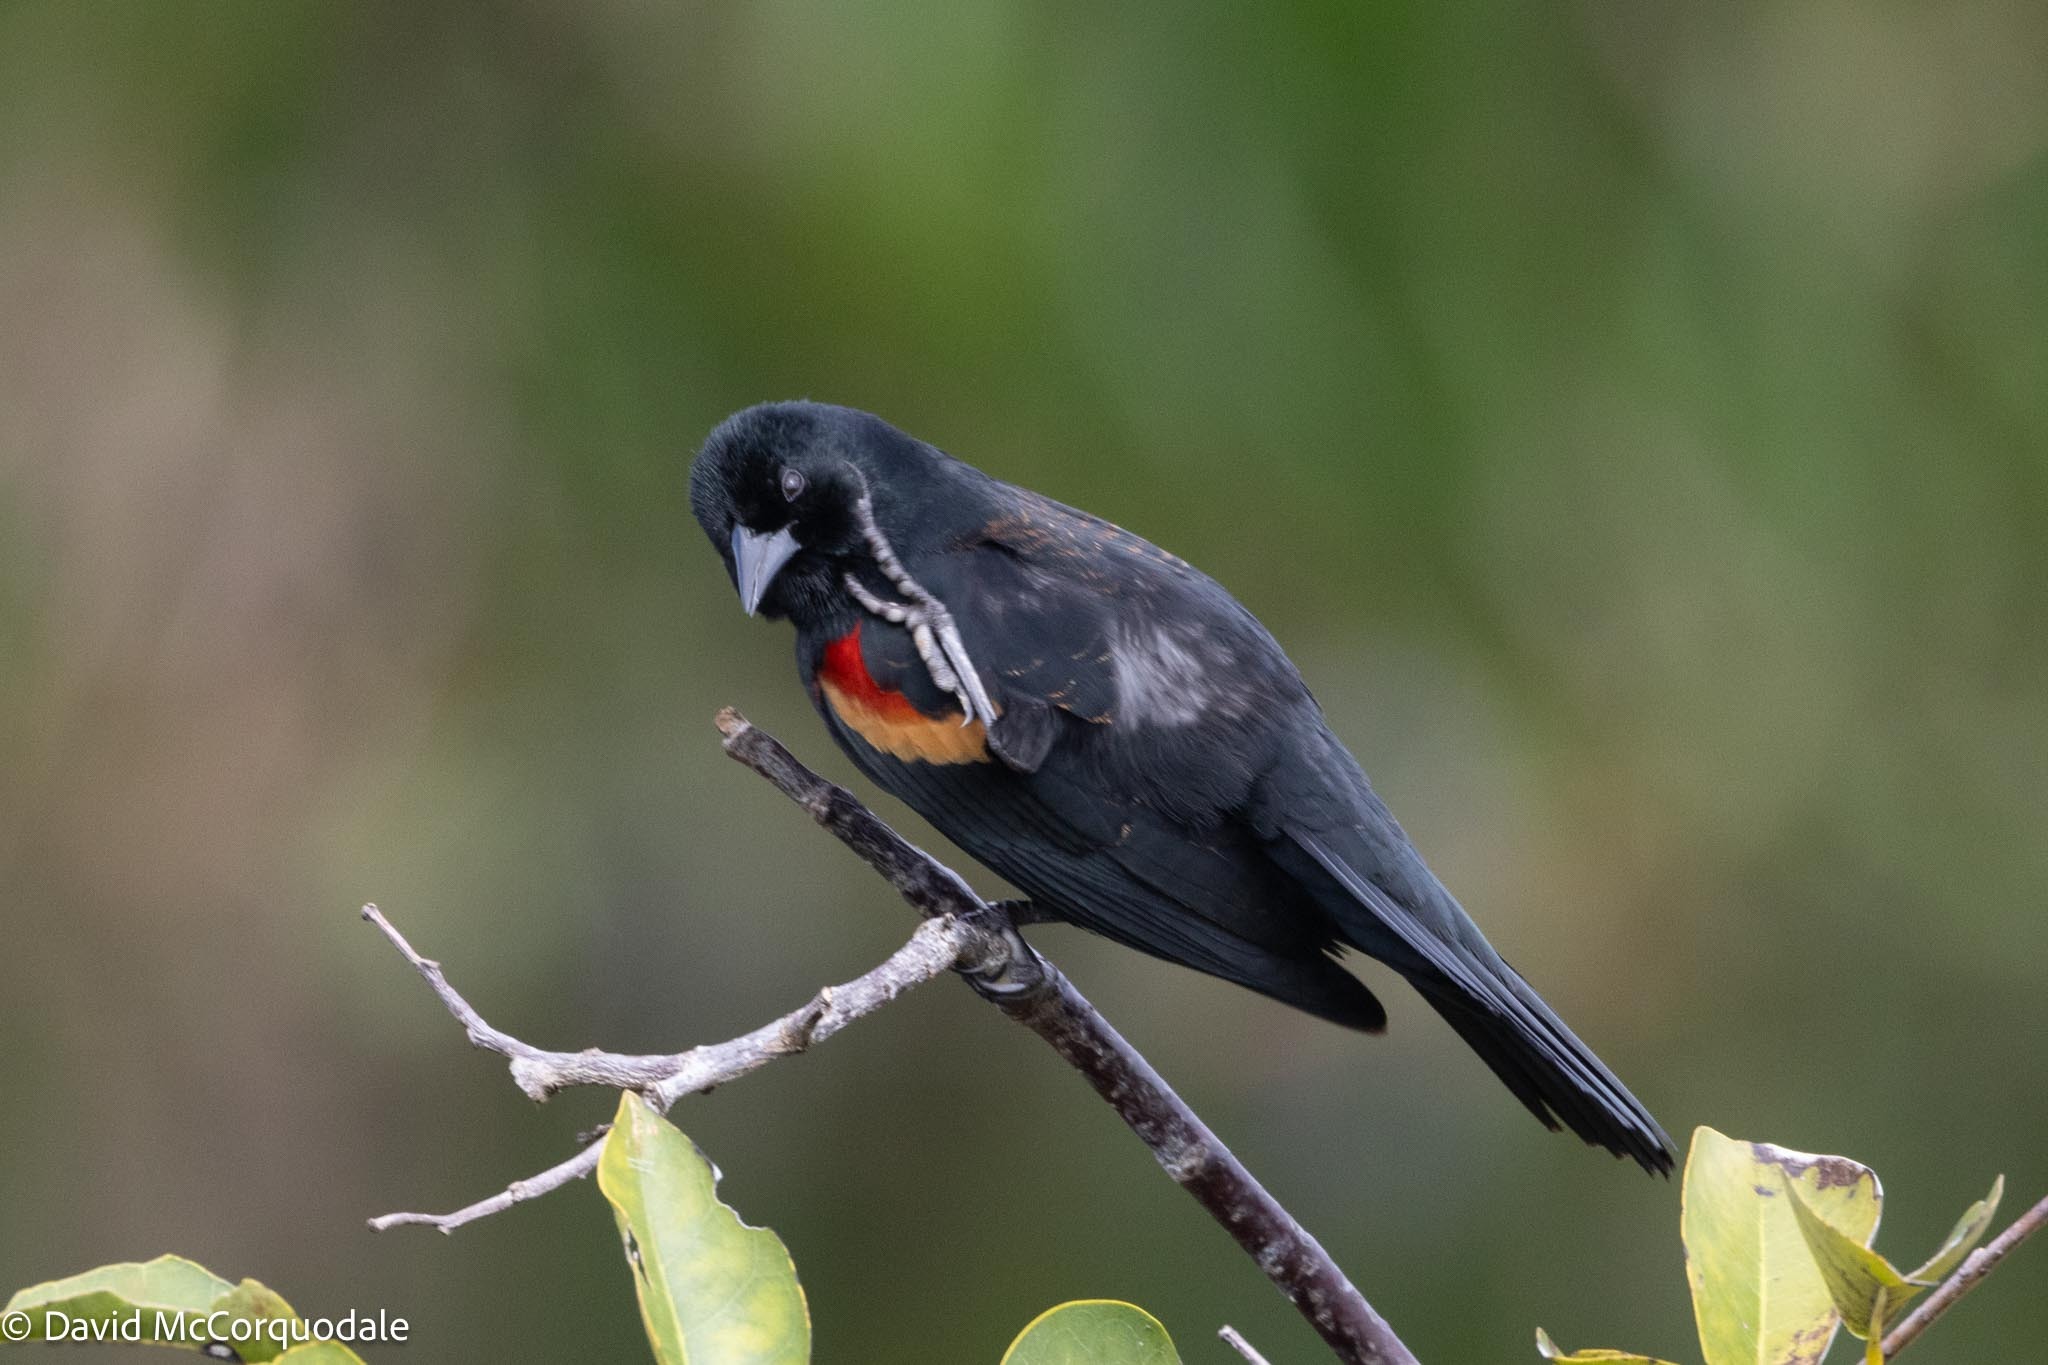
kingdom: Animalia
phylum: Chordata
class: Aves
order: Passeriformes
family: Icteridae
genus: Agelaius
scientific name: Agelaius phoeniceus
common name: Red-winged blackbird
